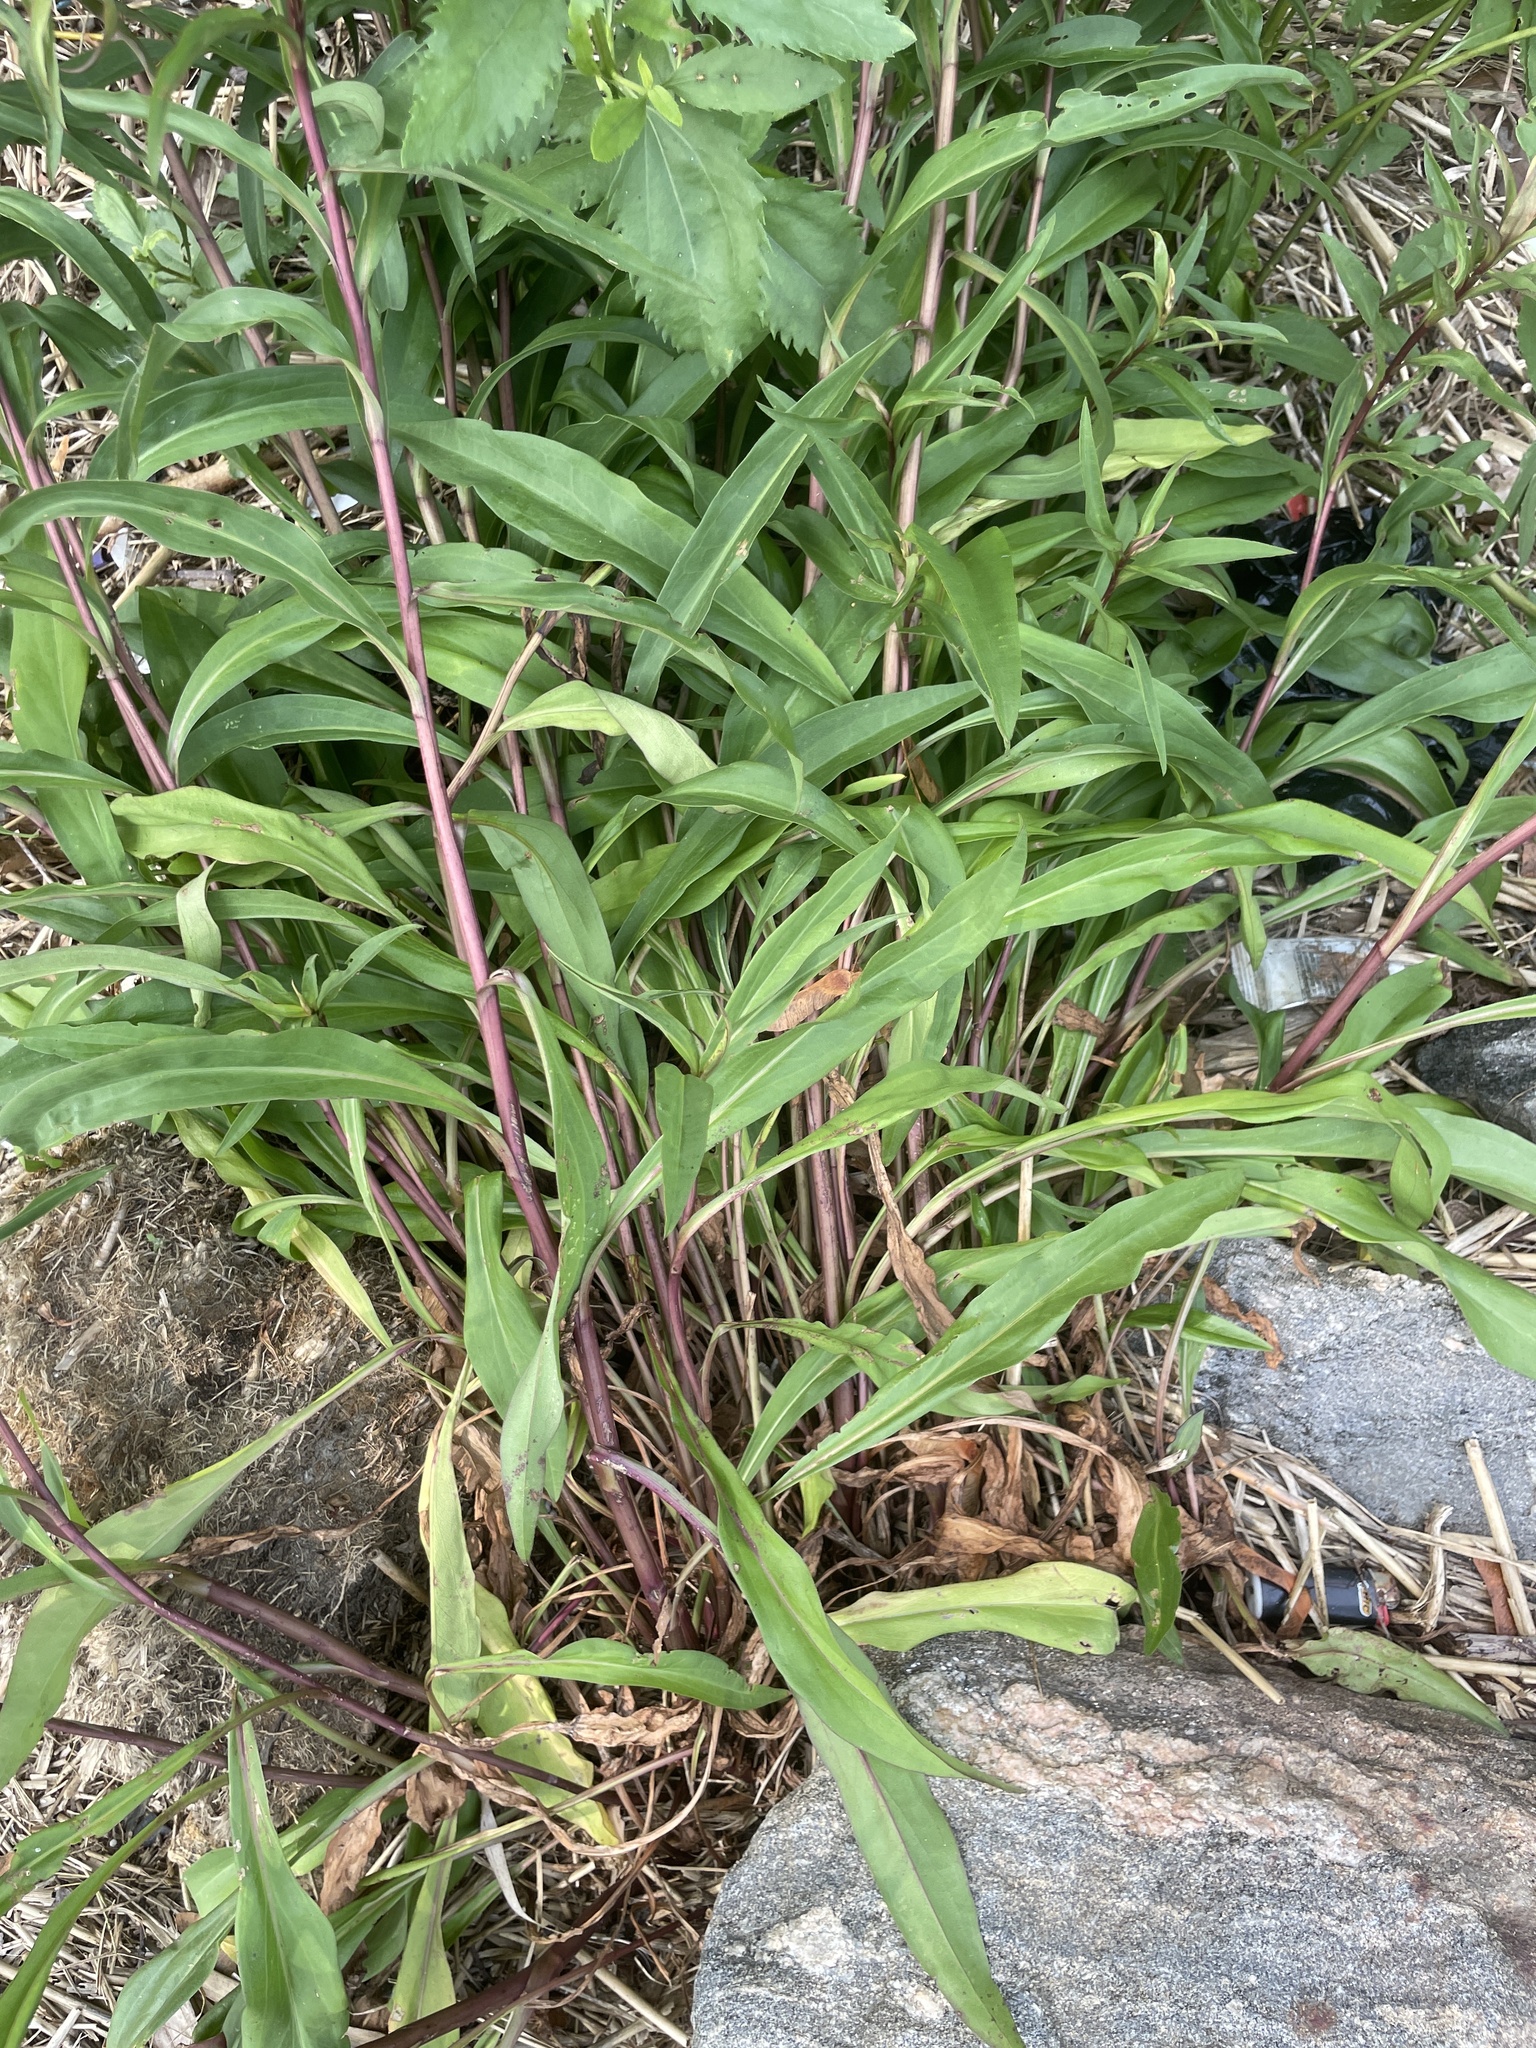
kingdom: Plantae
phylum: Tracheophyta
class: Magnoliopsida
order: Asterales
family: Asteraceae
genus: Solidago
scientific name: Solidago sempervirens
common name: Salt-marsh goldenrod
